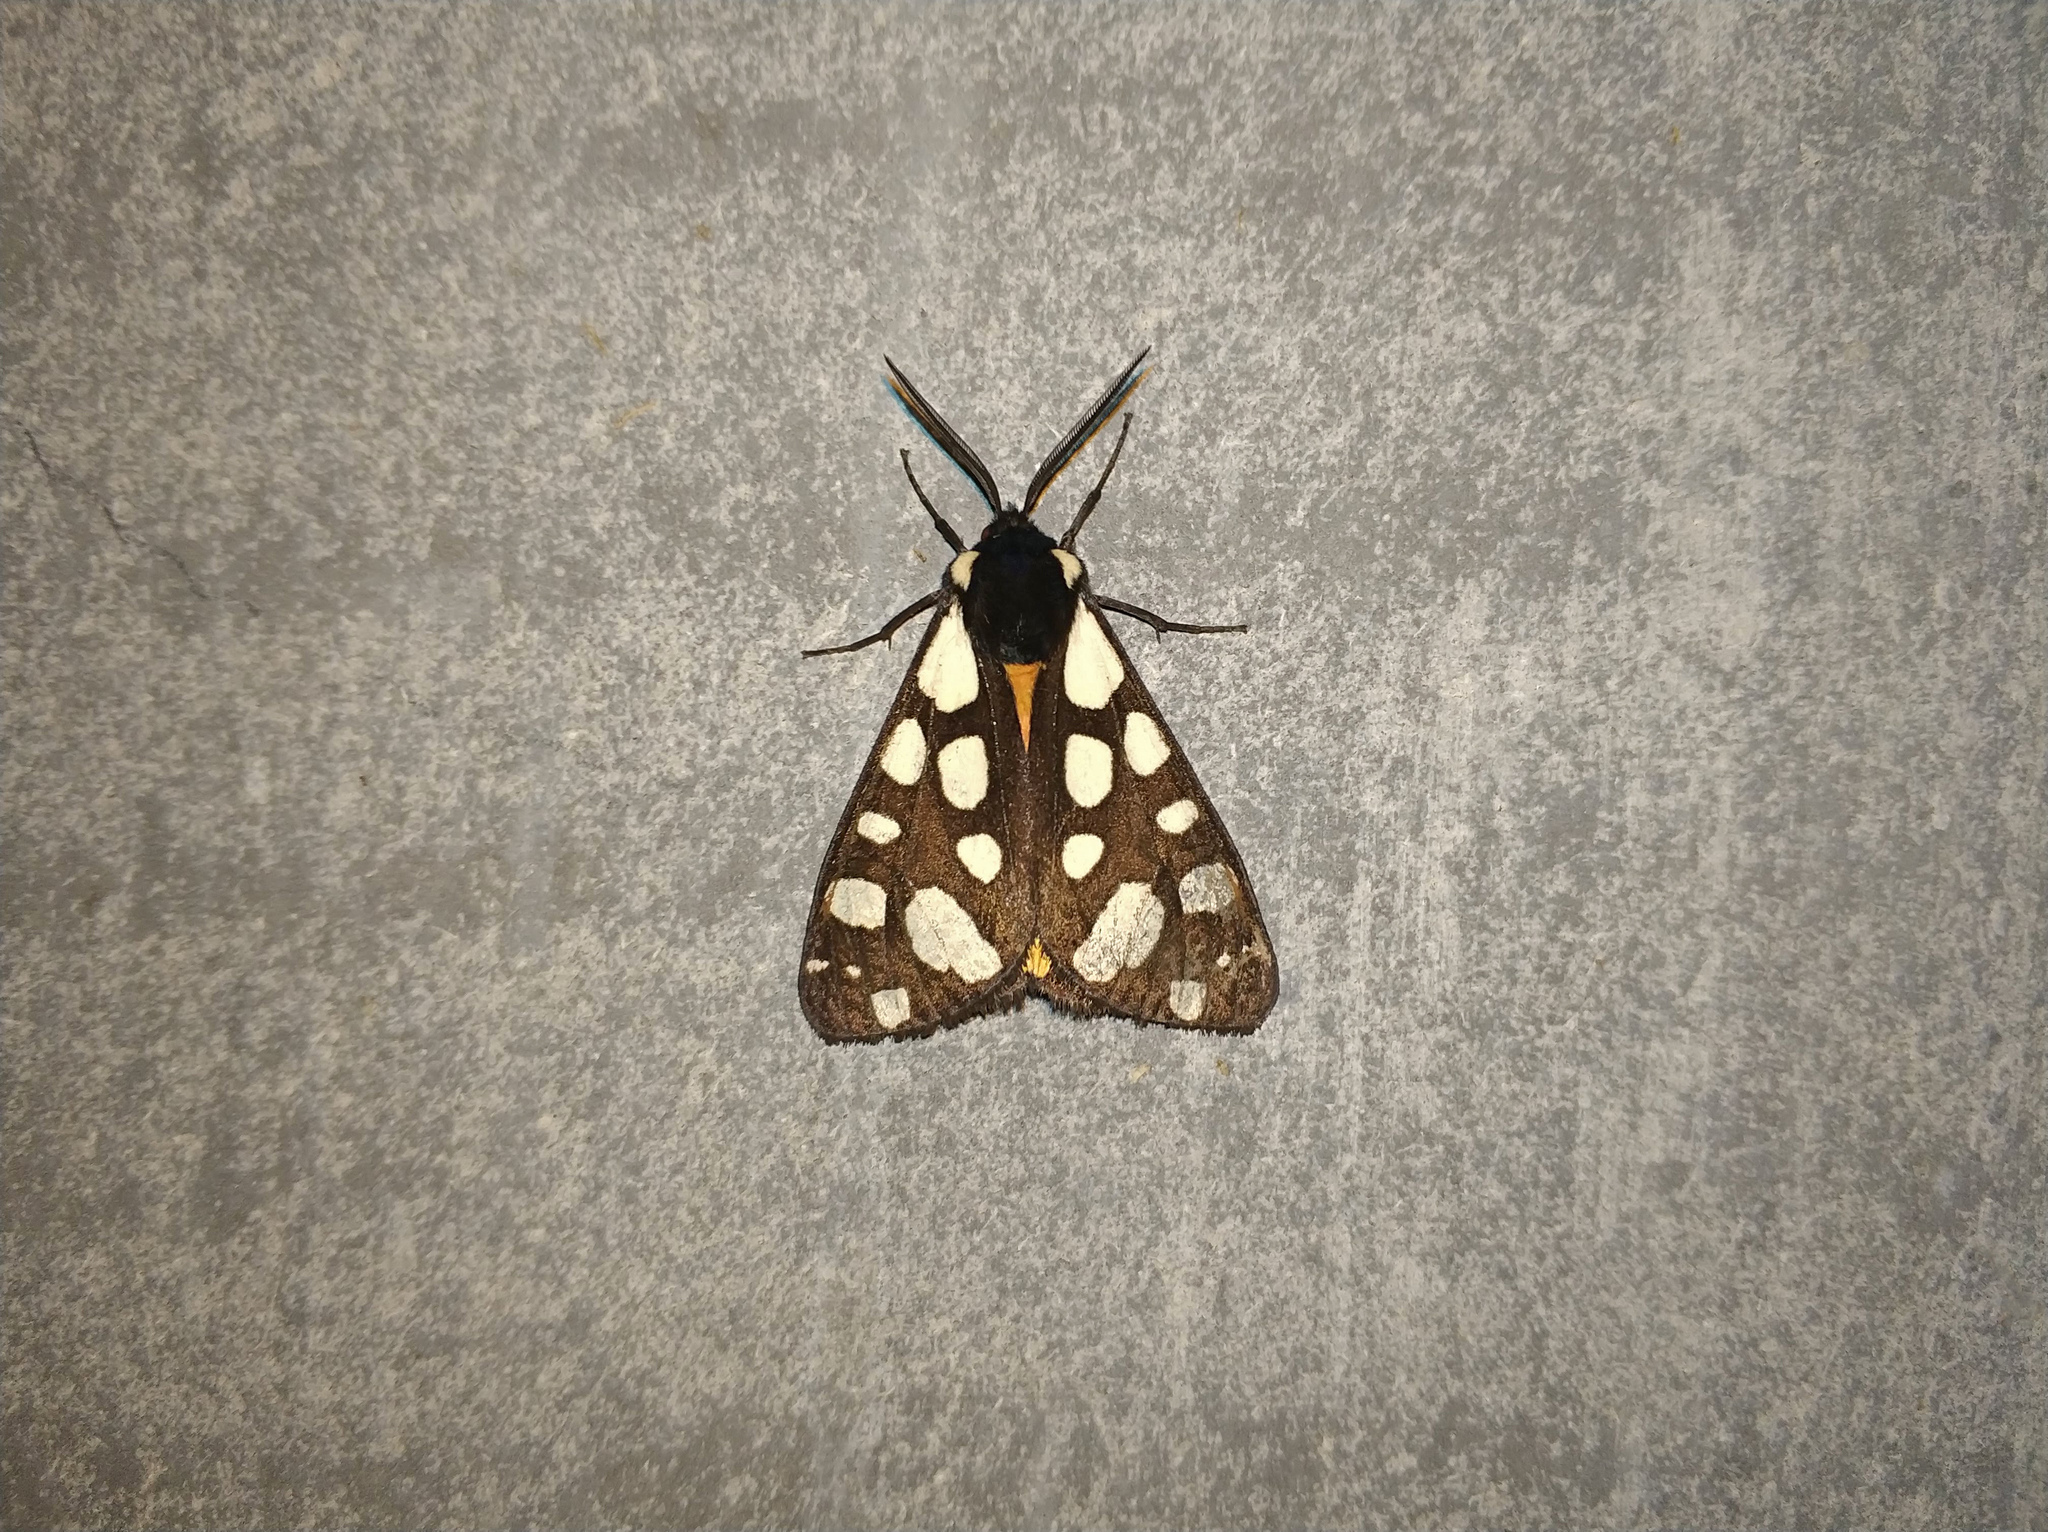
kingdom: Animalia
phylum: Arthropoda
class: Insecta
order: Lepidoptera
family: Erebidae
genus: Epicallia
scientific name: Epicallia villica
